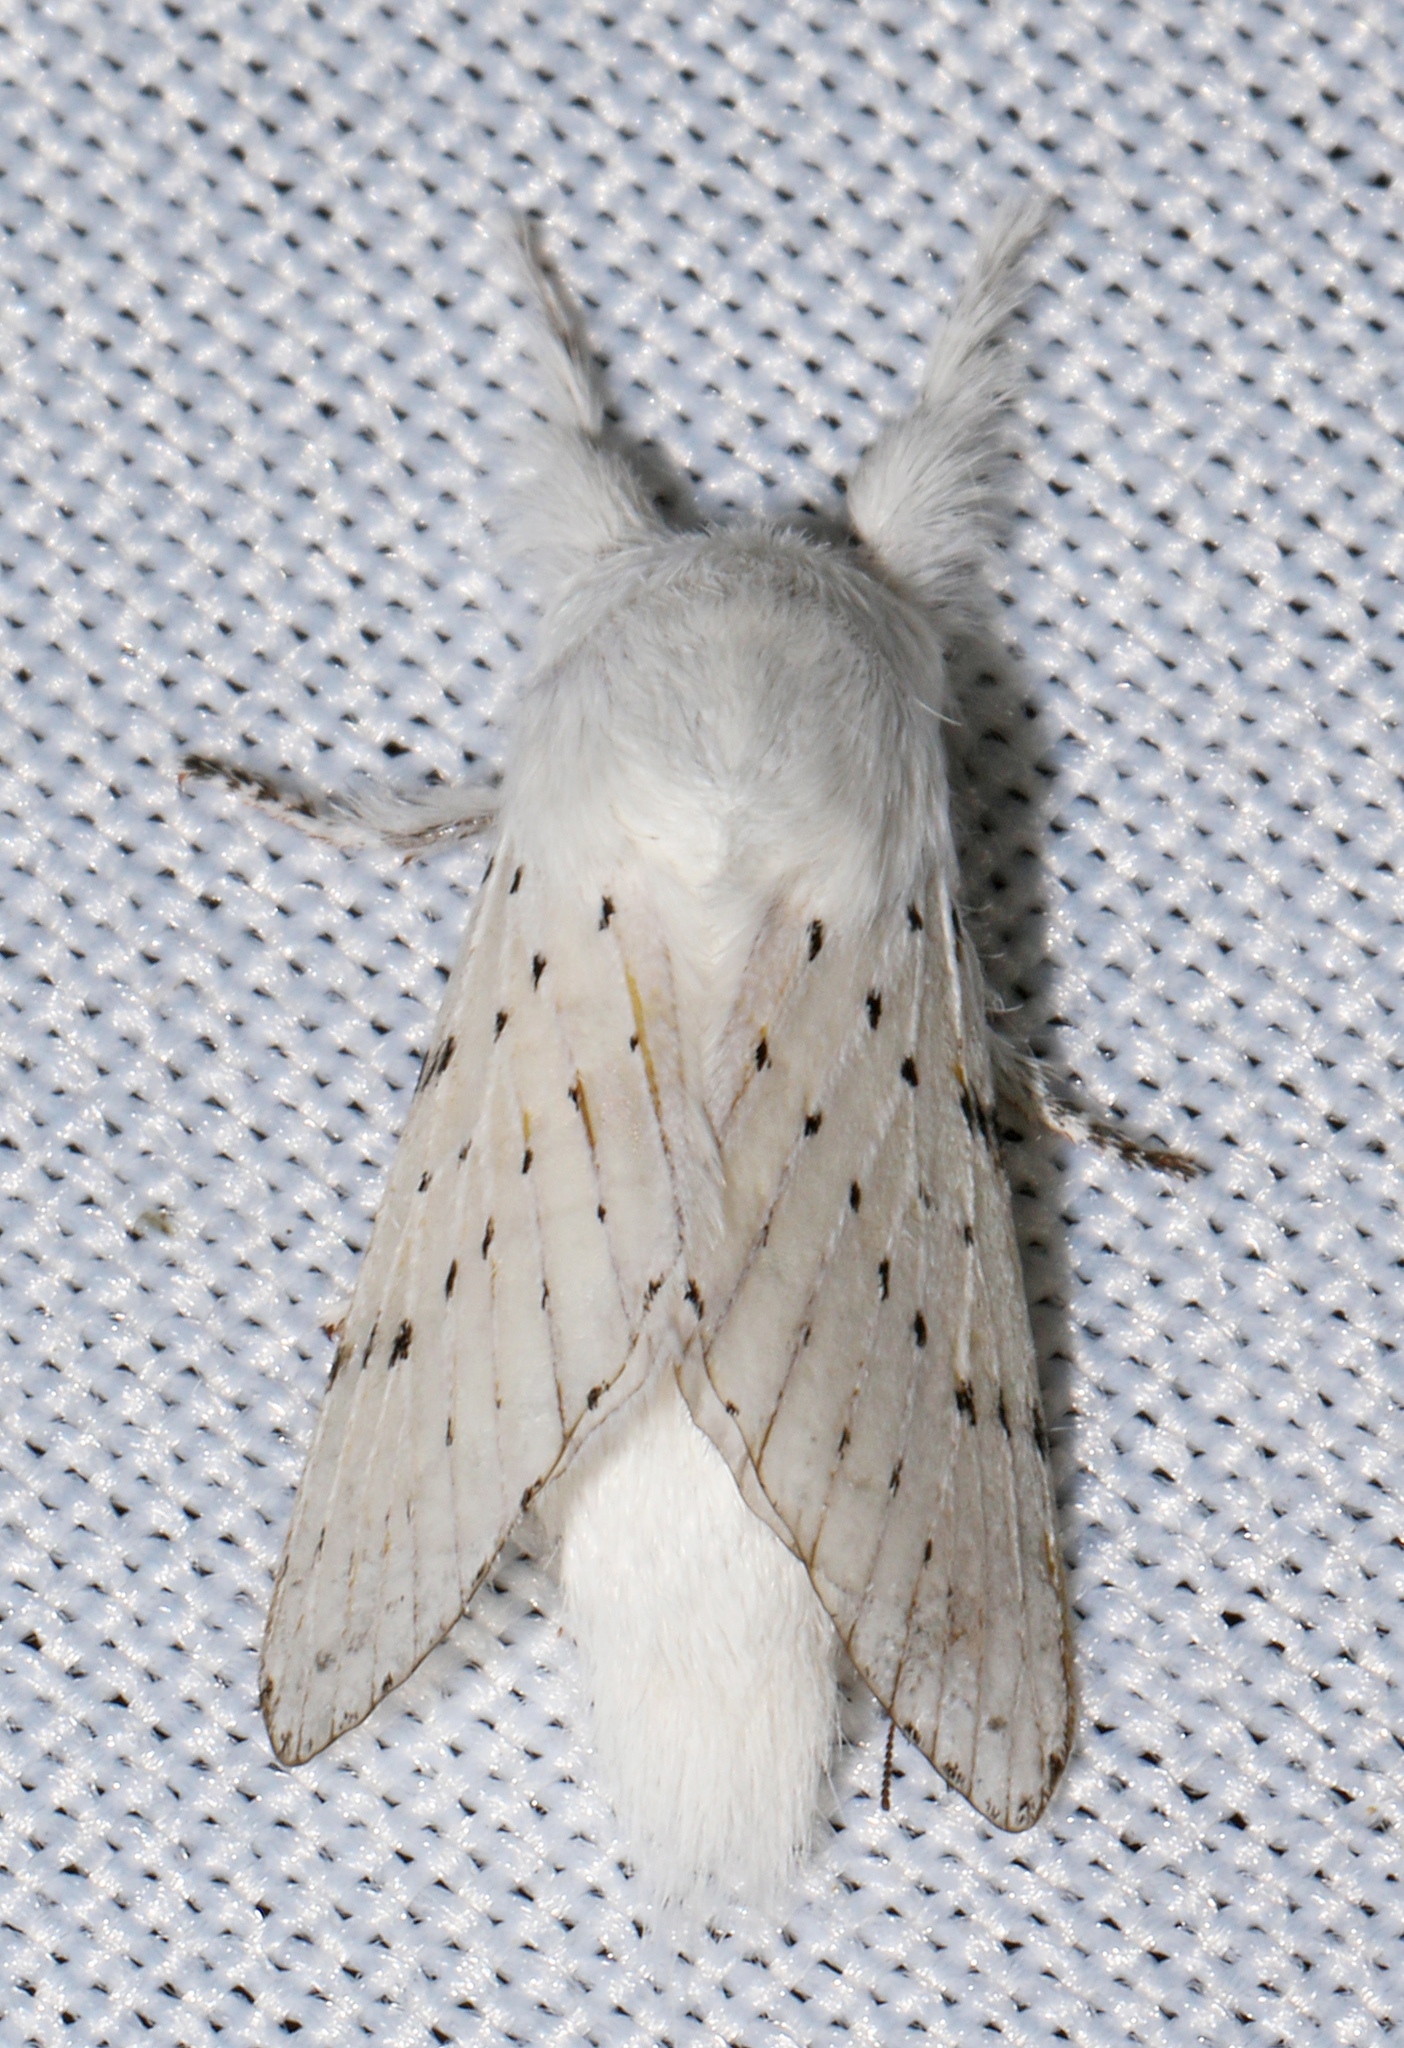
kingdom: Animalia
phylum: Arthropoda
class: Insecta
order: Lepidoptera
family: Lasiocampidae
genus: Artace
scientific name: Artace cribrarius
